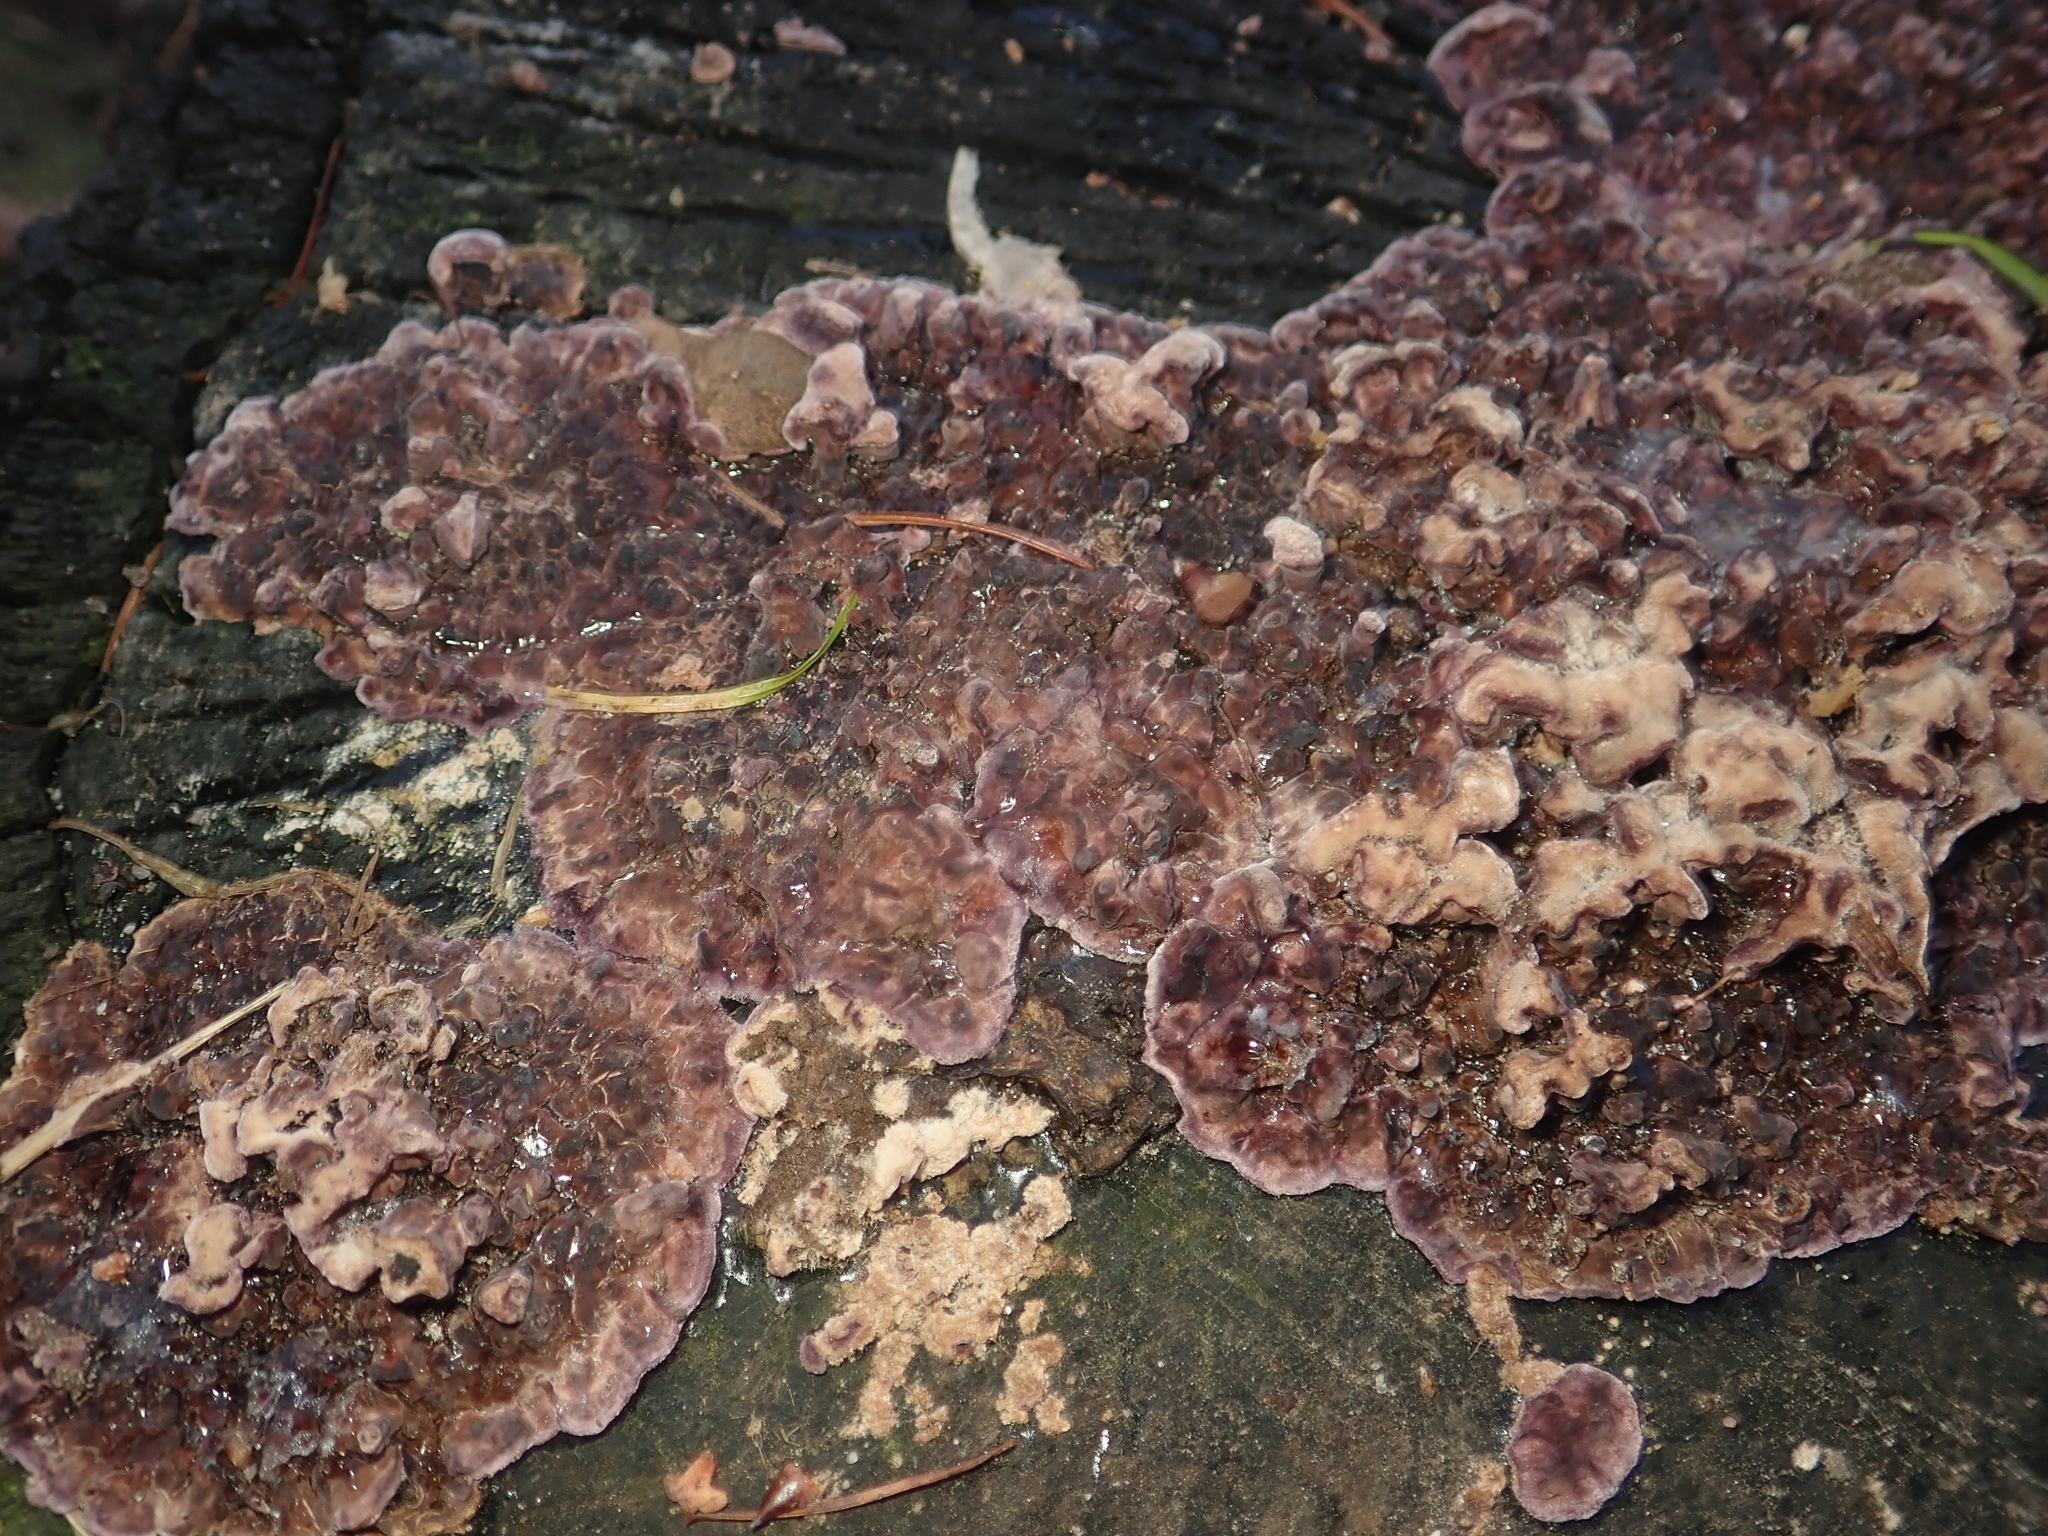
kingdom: Fungi
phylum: Basidiomycota
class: Agaricomycetes
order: Agaricales
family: Cyphellaceae
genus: Chondrostereum
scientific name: Chondrostereum purpureum
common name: Silver leaf disease
